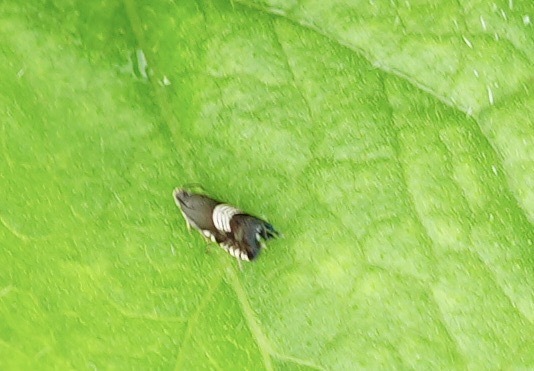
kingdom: Animalia
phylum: Arthropoda
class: Insecta
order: Lepidoptera
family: Tortricidae
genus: Grapholita
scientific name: Grapholita compositella
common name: Triple-stripe piercer
